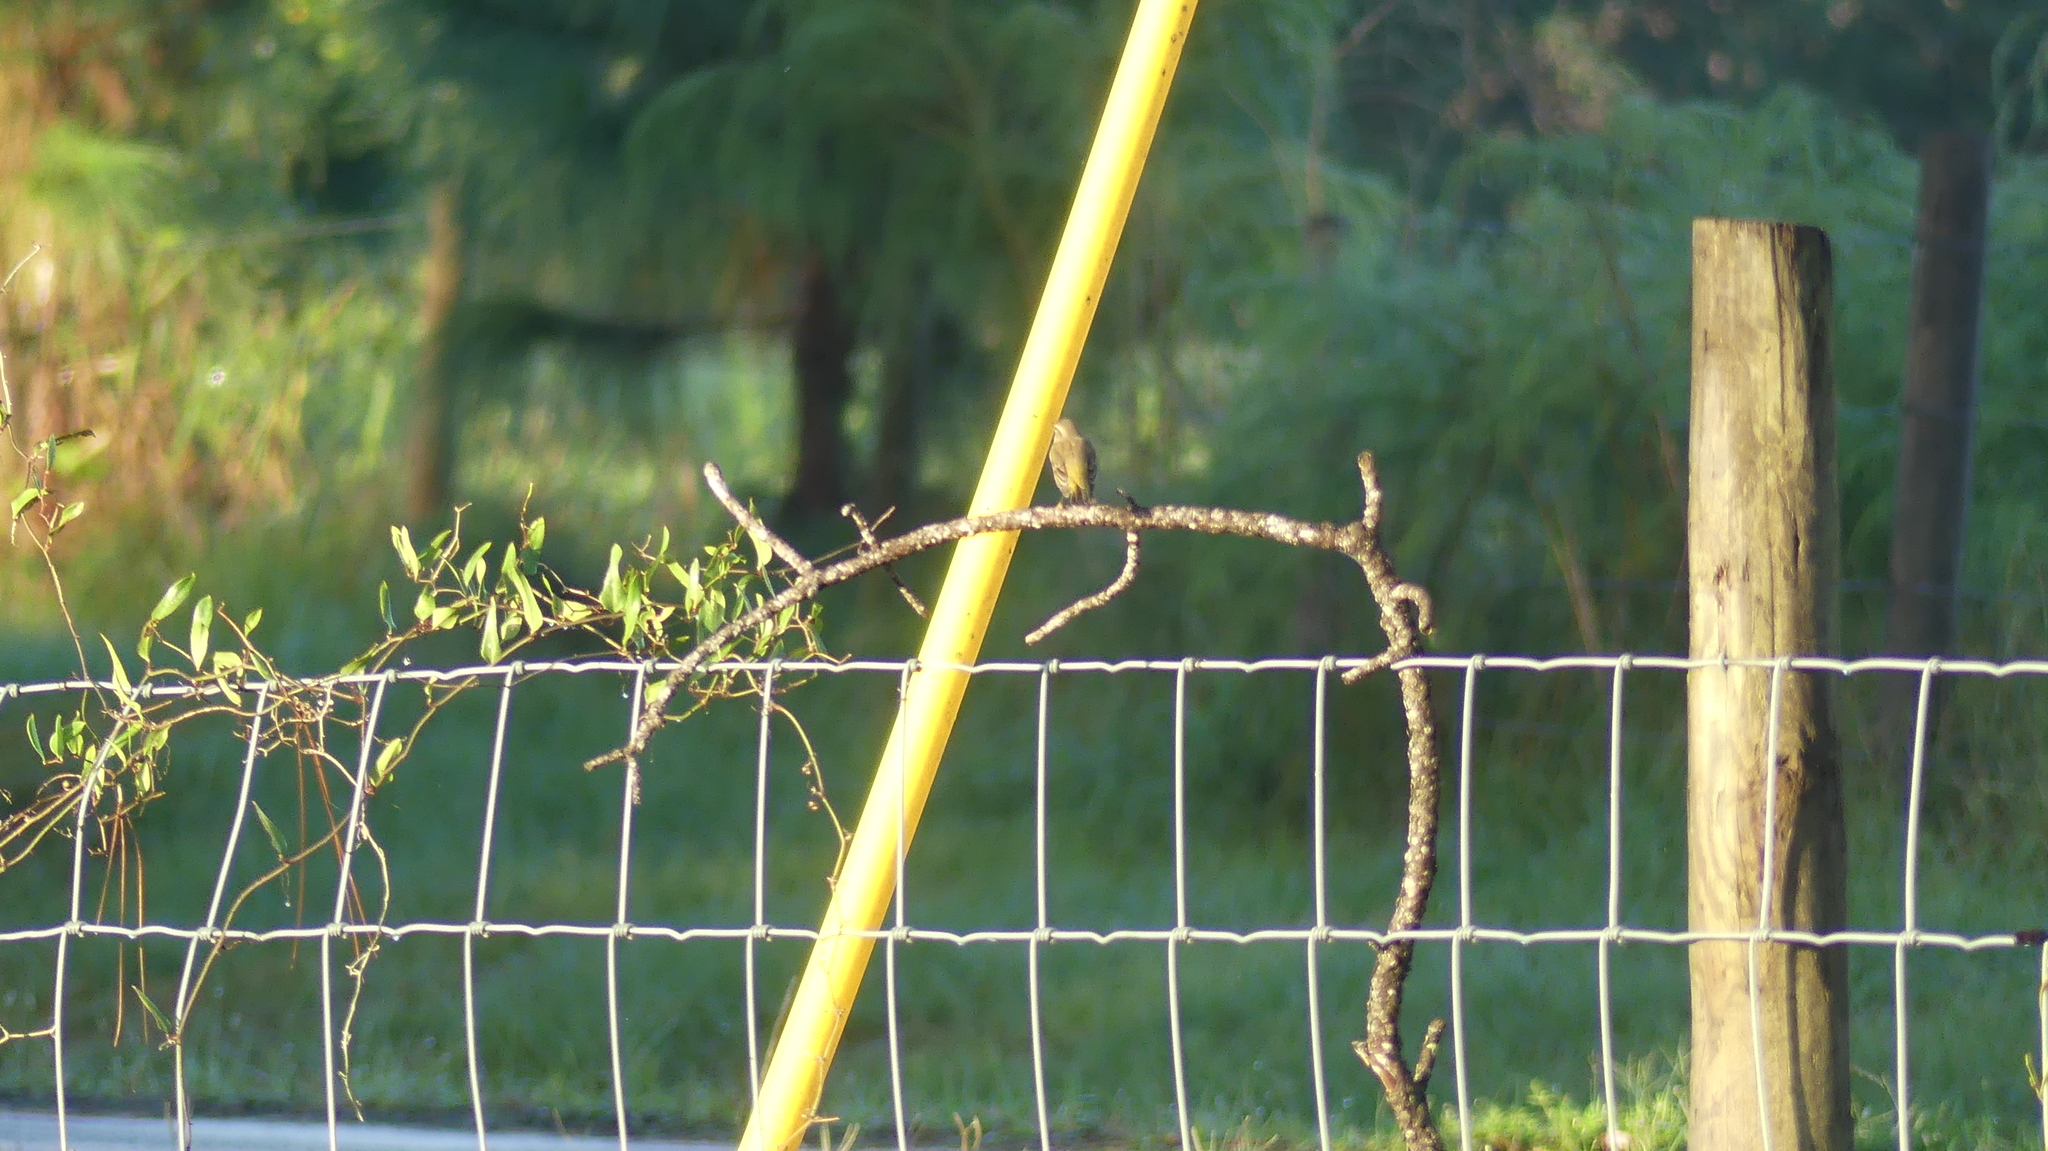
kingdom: Animalia
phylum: Chordata
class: Aves
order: Passeriformes
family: Parulidae
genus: Setophaga
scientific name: Setophaga palmarum
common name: Palm warbler
